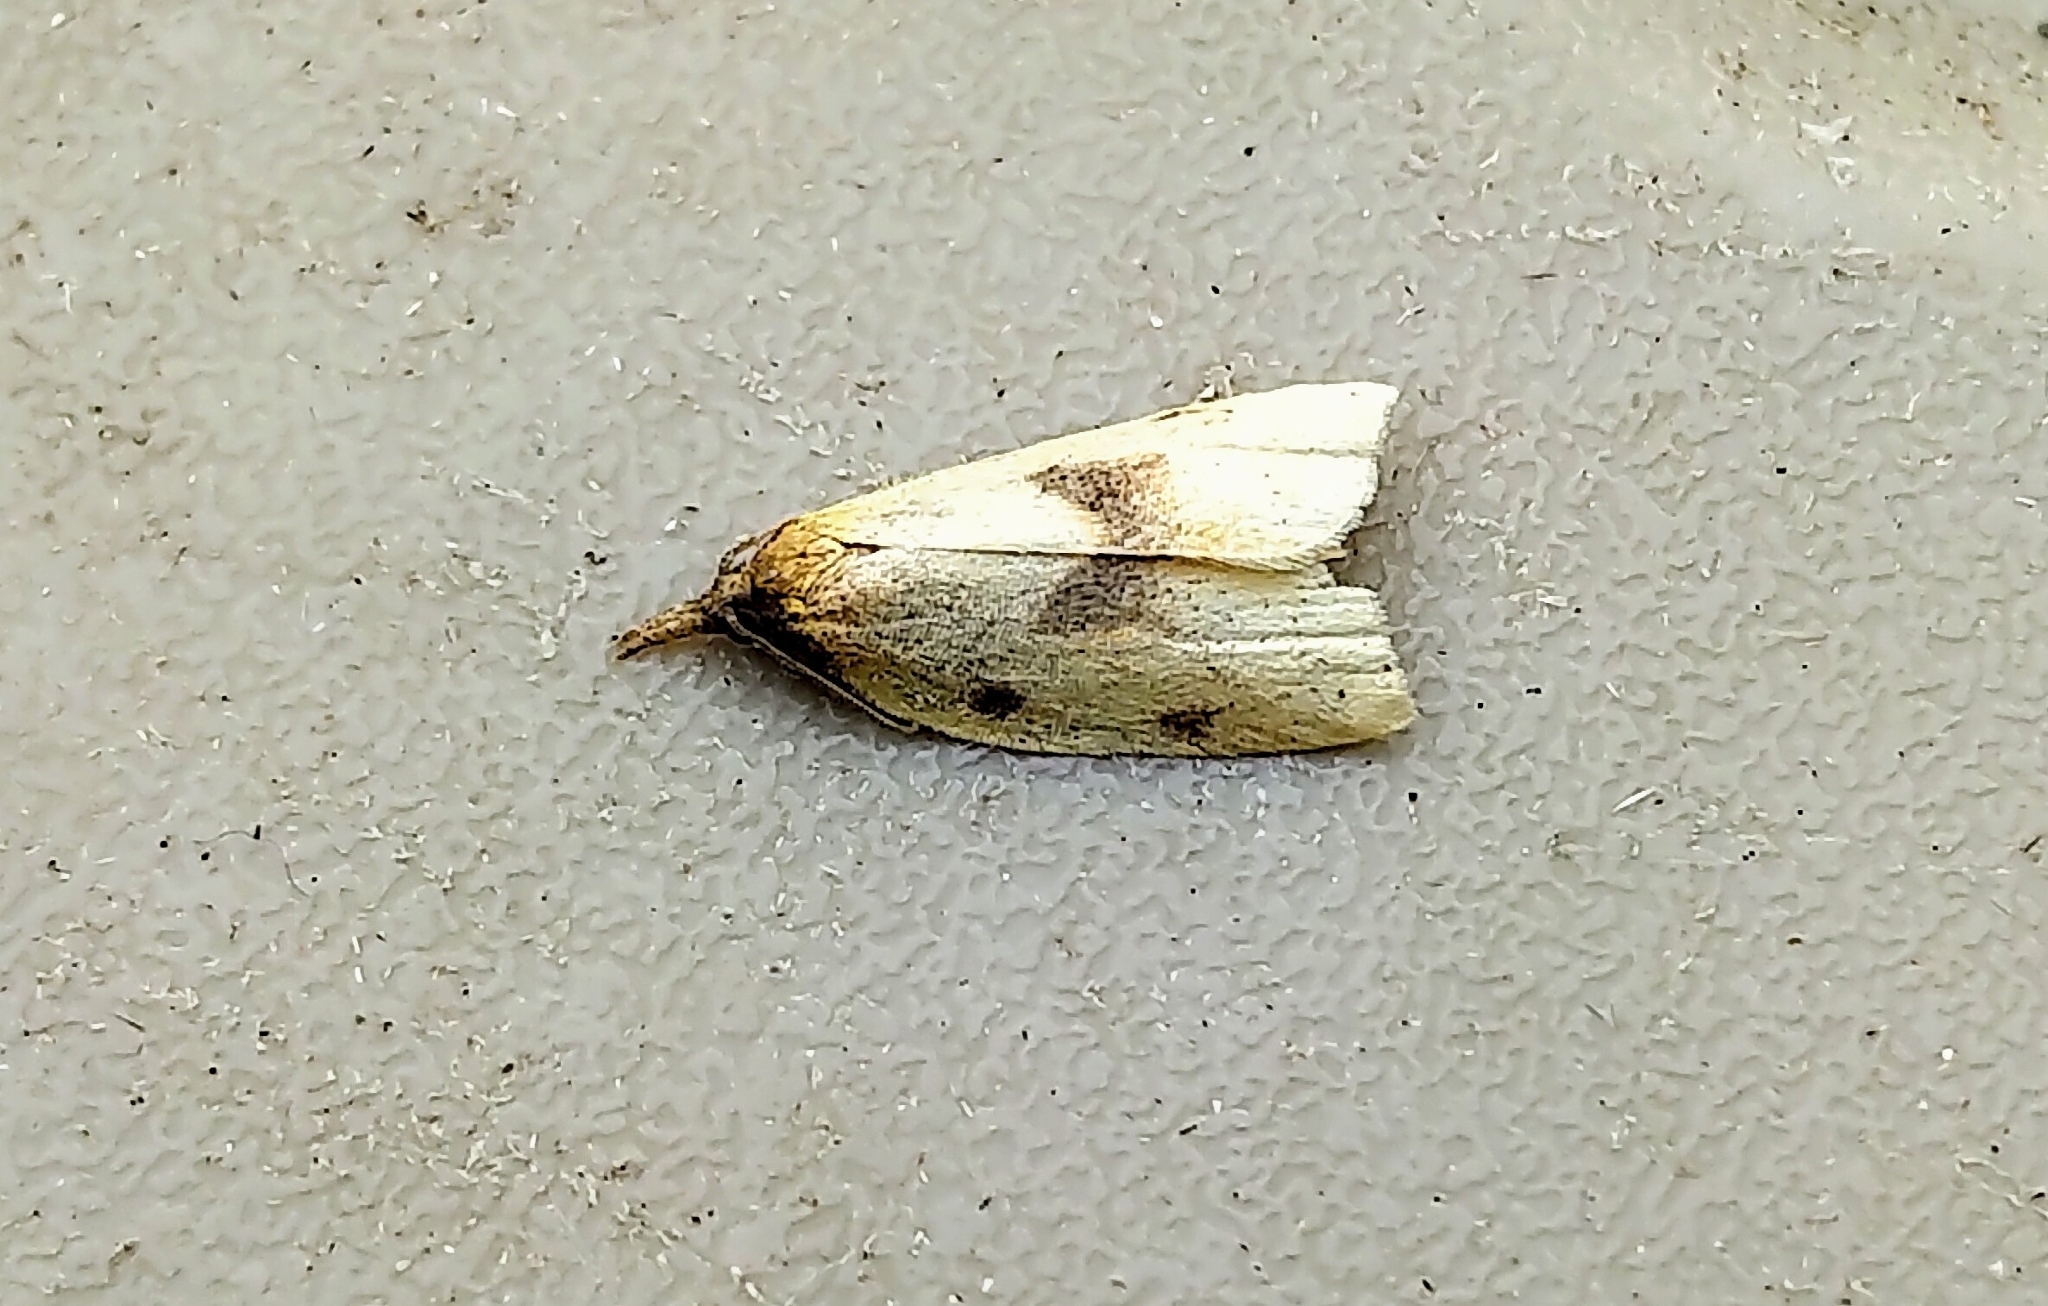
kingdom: Animalia
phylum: Arthropoda
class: Insecta
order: Lepidoptera
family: Tortricidae
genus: Sparganothis
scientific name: Sparganothis xanthoides
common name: Mosaic sparganothis moth
